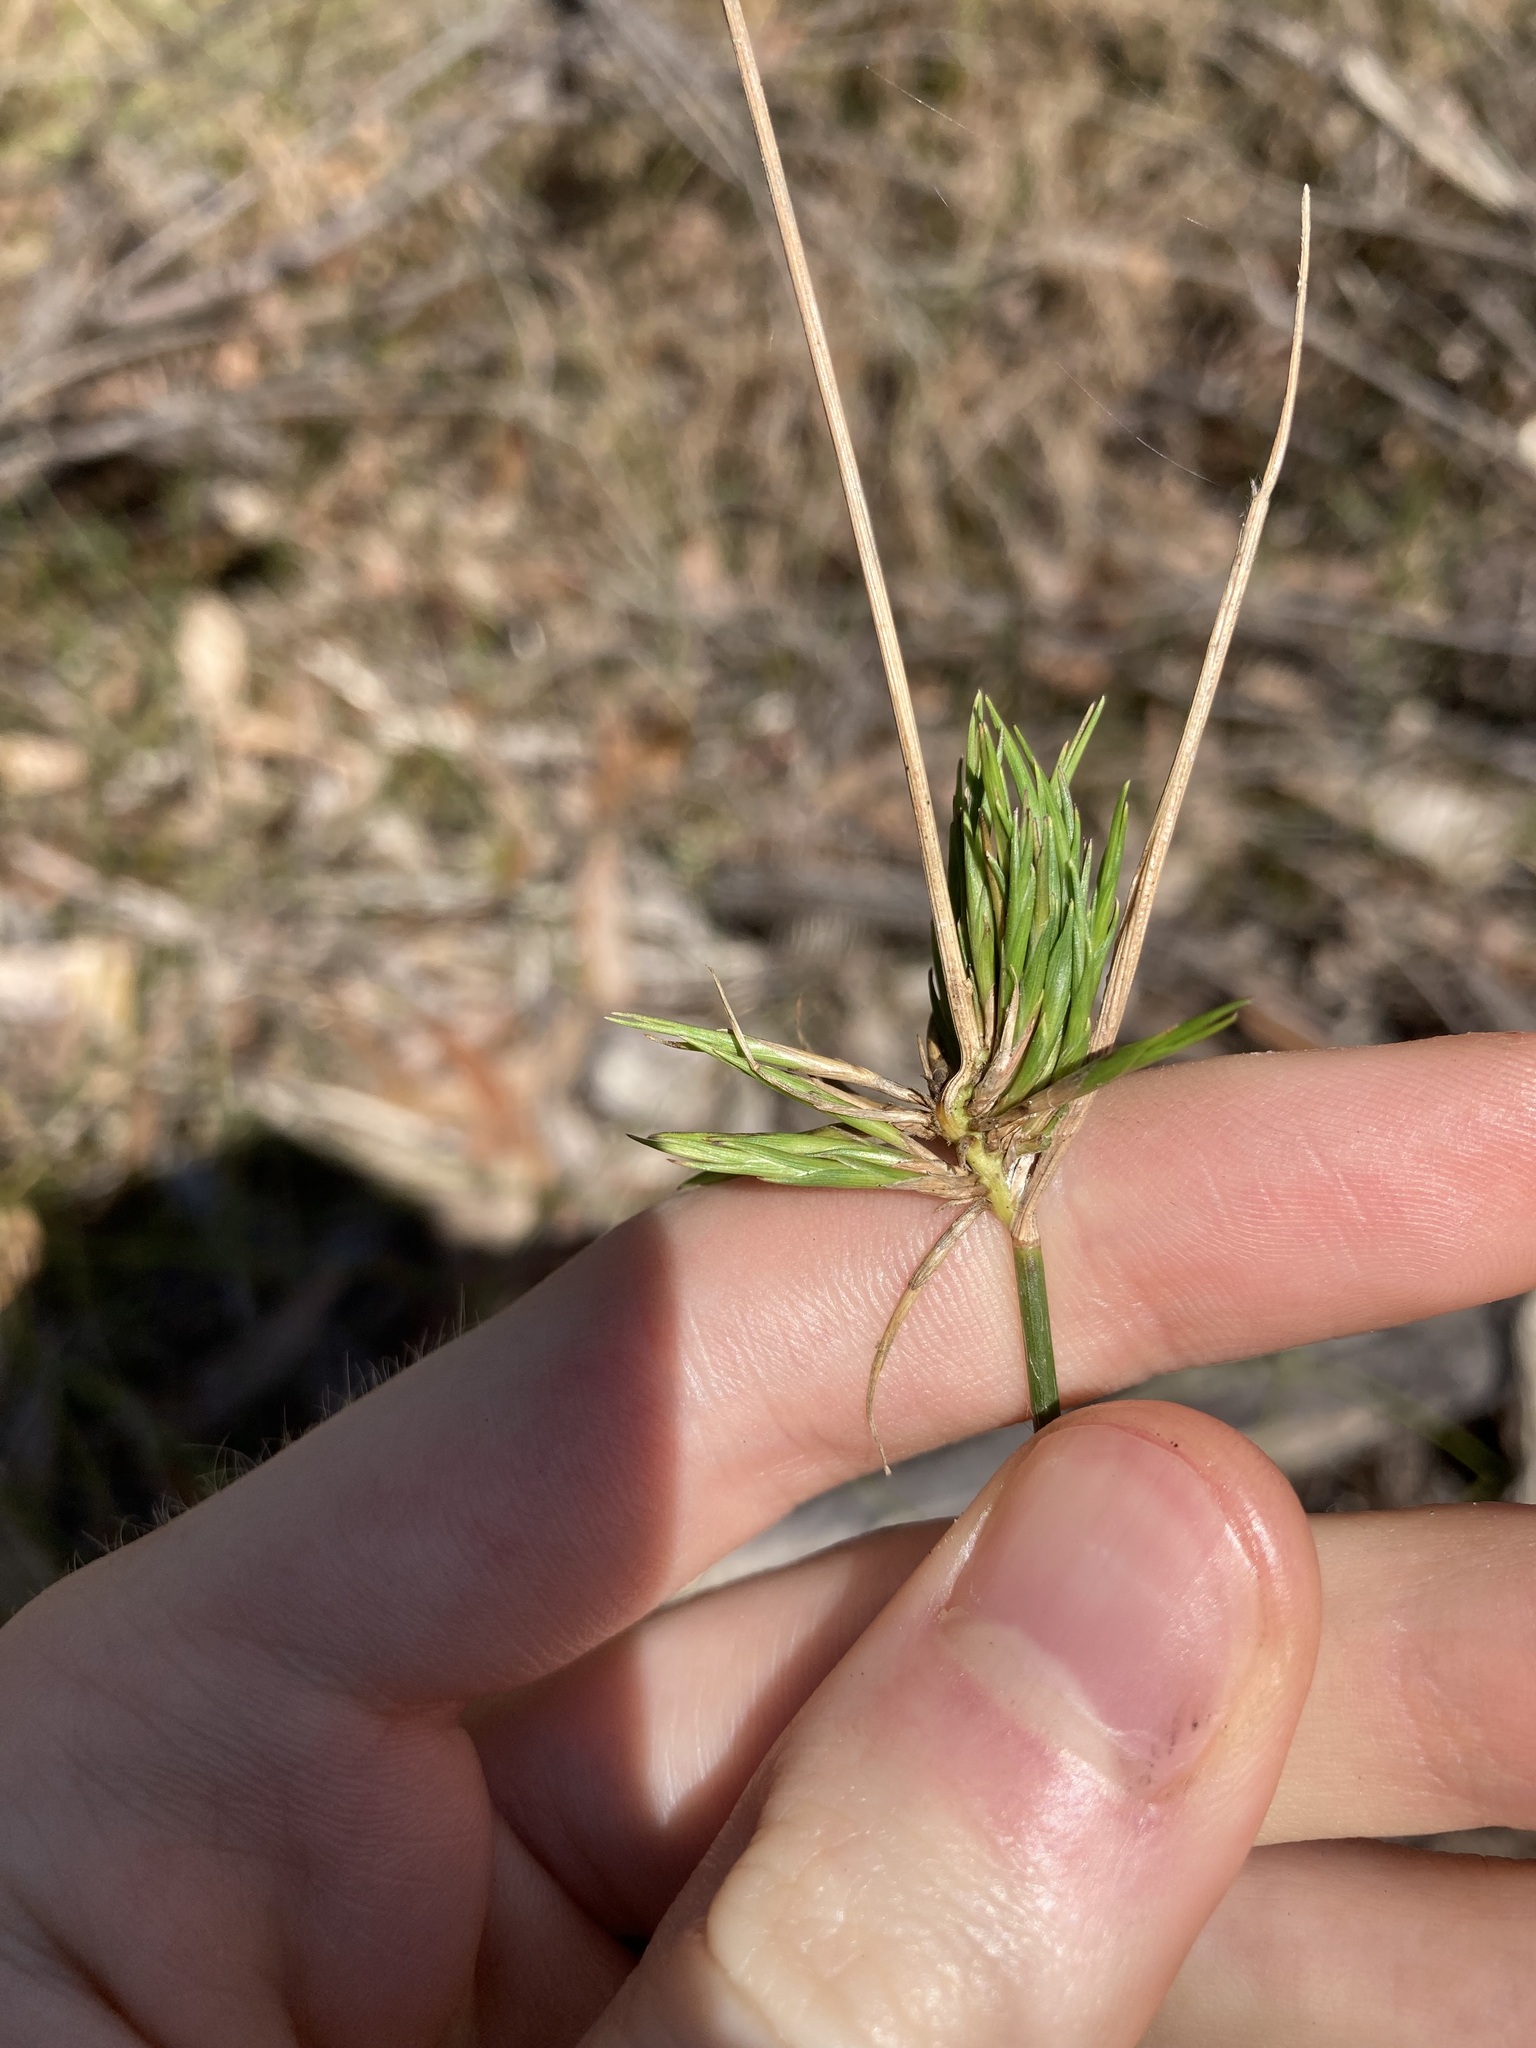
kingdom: Plantae
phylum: Tracheophyta
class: Liliopsida
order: Poales
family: Poaceae
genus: Entolasia
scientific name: Entolasia stricta
